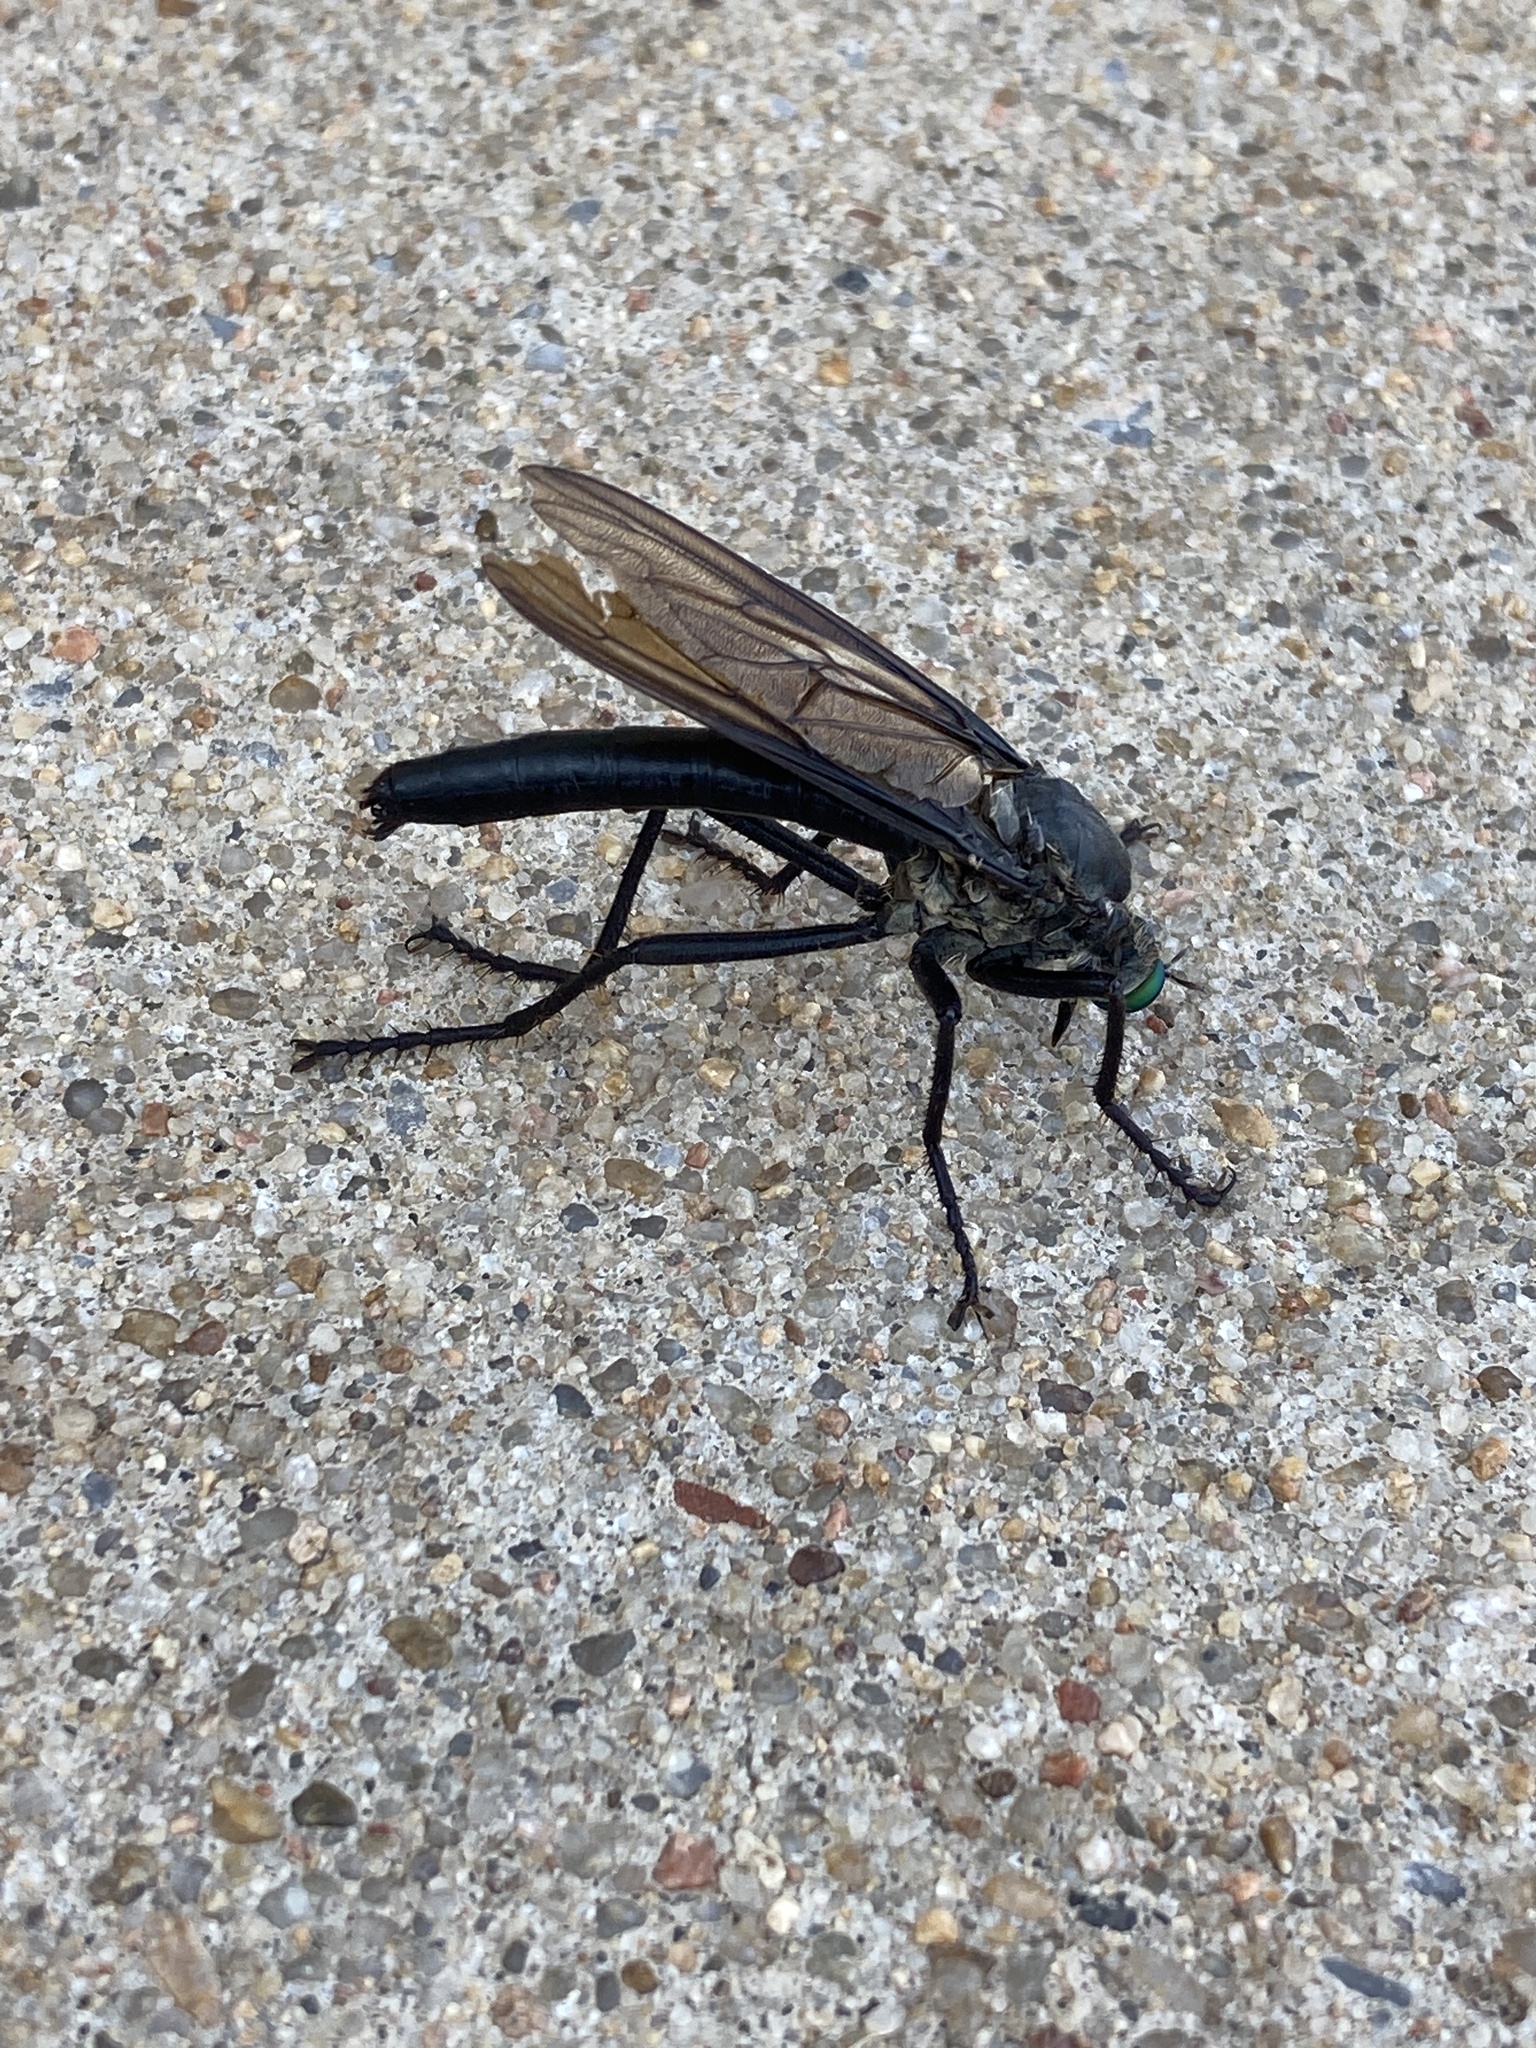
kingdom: Animalia
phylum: Arthropoda
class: Insecta
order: Diptera
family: Asilidae
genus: Microstylum
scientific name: Microstylum morosum
